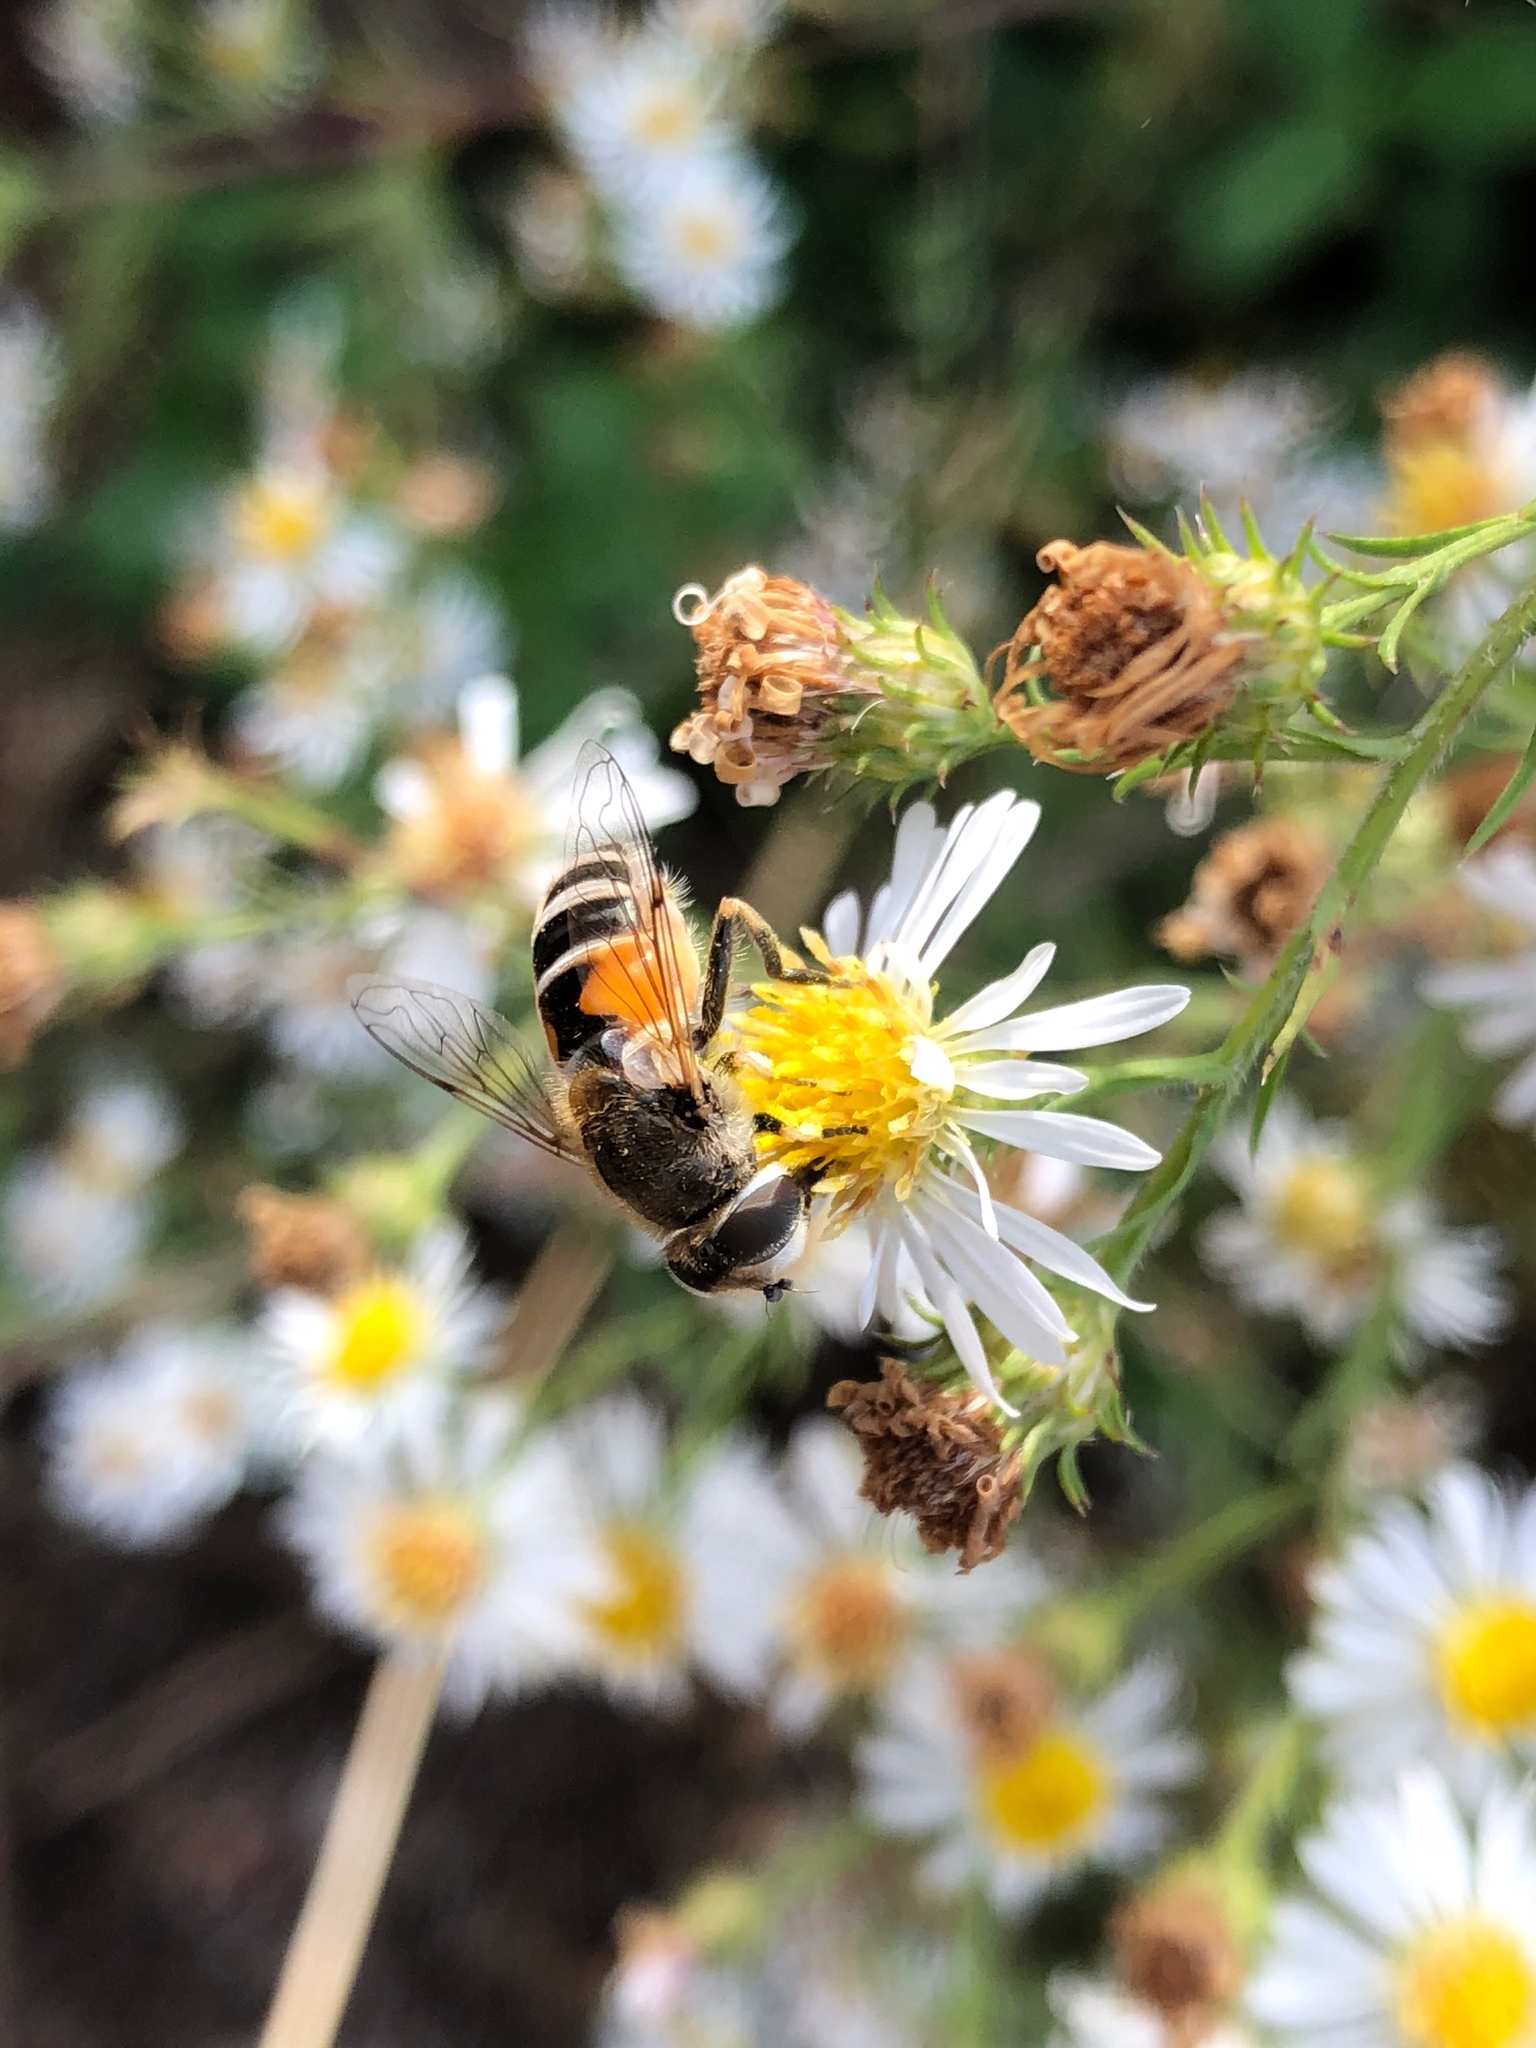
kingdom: Animalia
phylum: Arthropoda
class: Insecta
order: Diptera
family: Syrphidae
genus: Eristalis
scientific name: Eristalis arbustorum
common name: Hover fly
